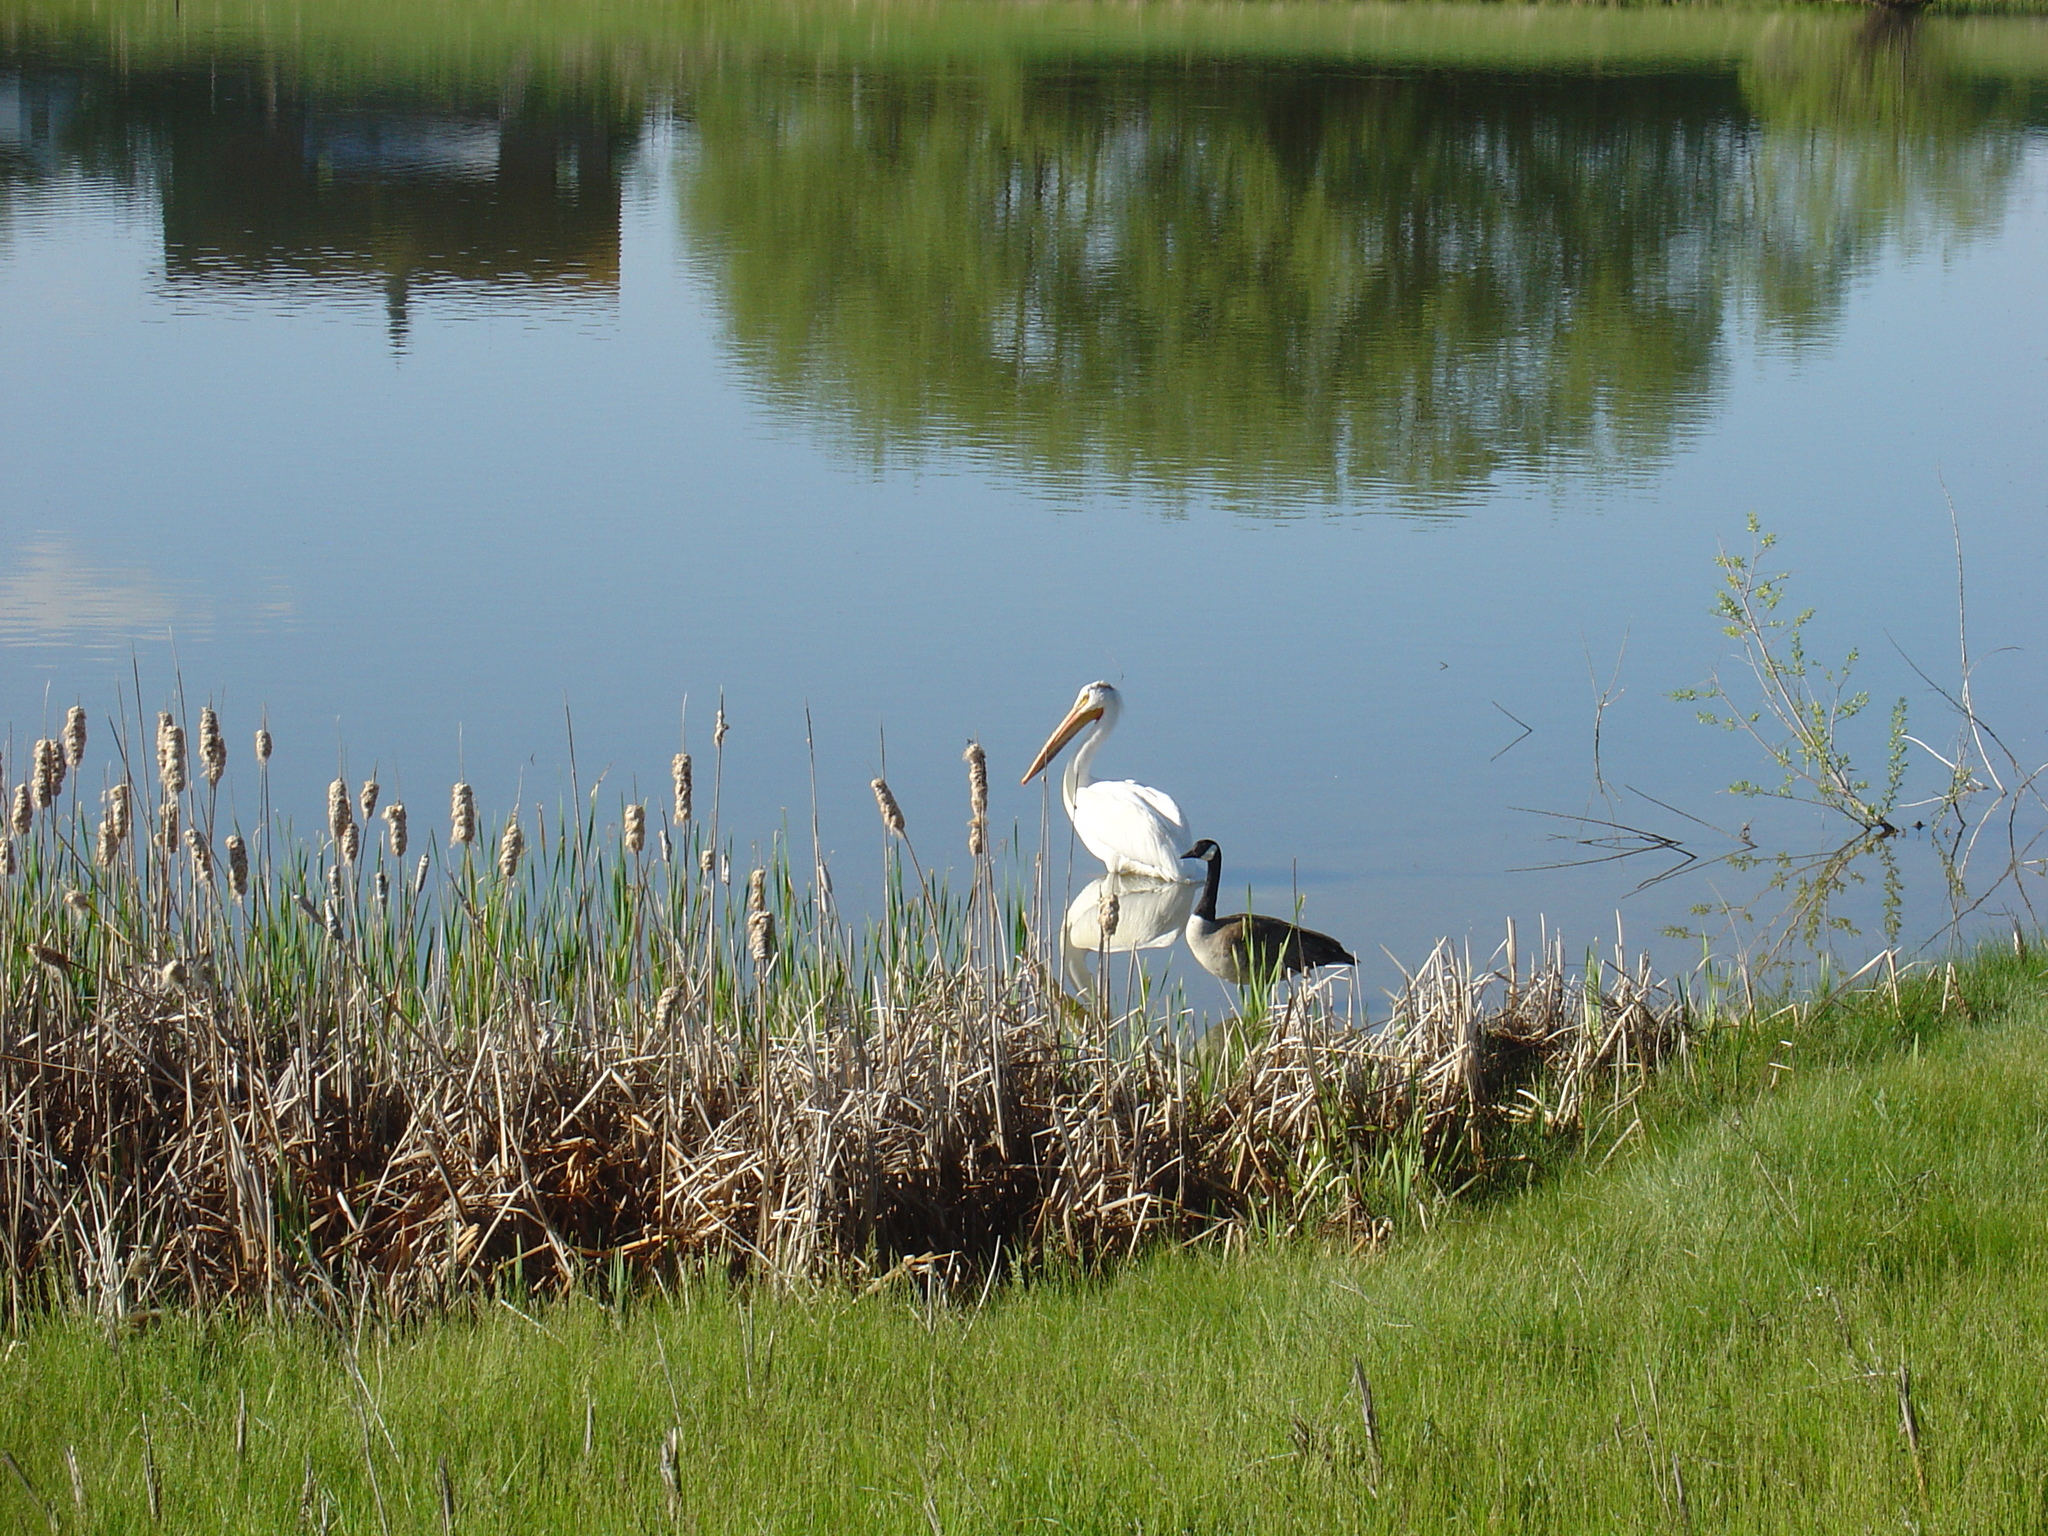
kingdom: Animalia
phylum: Chordata
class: Aves
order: Pelecaniformes
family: Pelecanidae
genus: Pelecanus
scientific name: Pelecanus erythrorhynchos
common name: American white pelican
